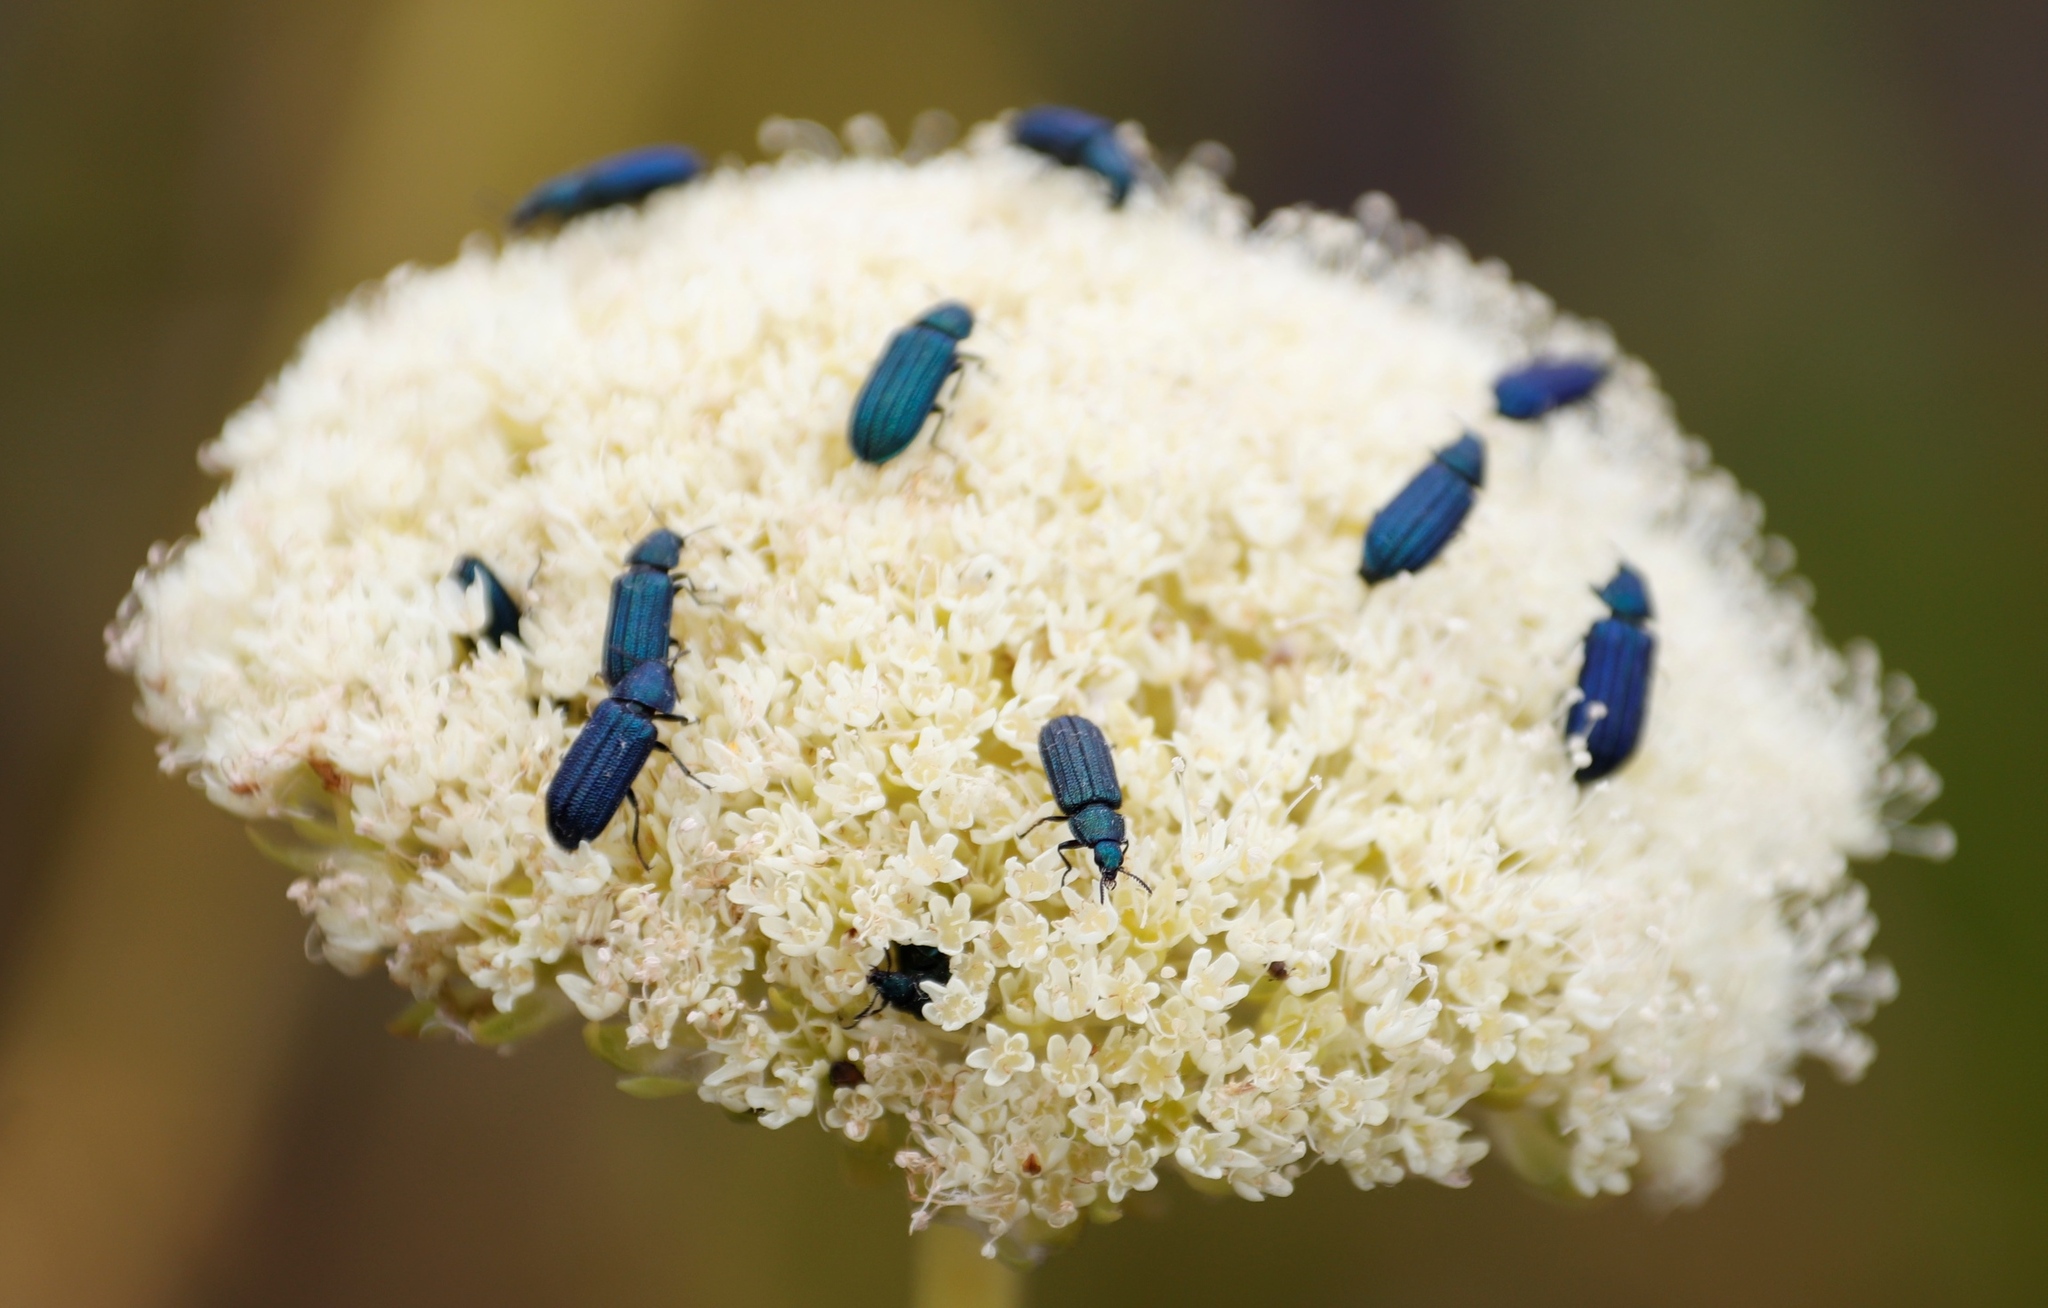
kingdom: Plantae
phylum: Tracheophyta
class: Magnoliopsida
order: Apiales
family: Apiaceae
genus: Hermas
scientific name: Hermas villosa
